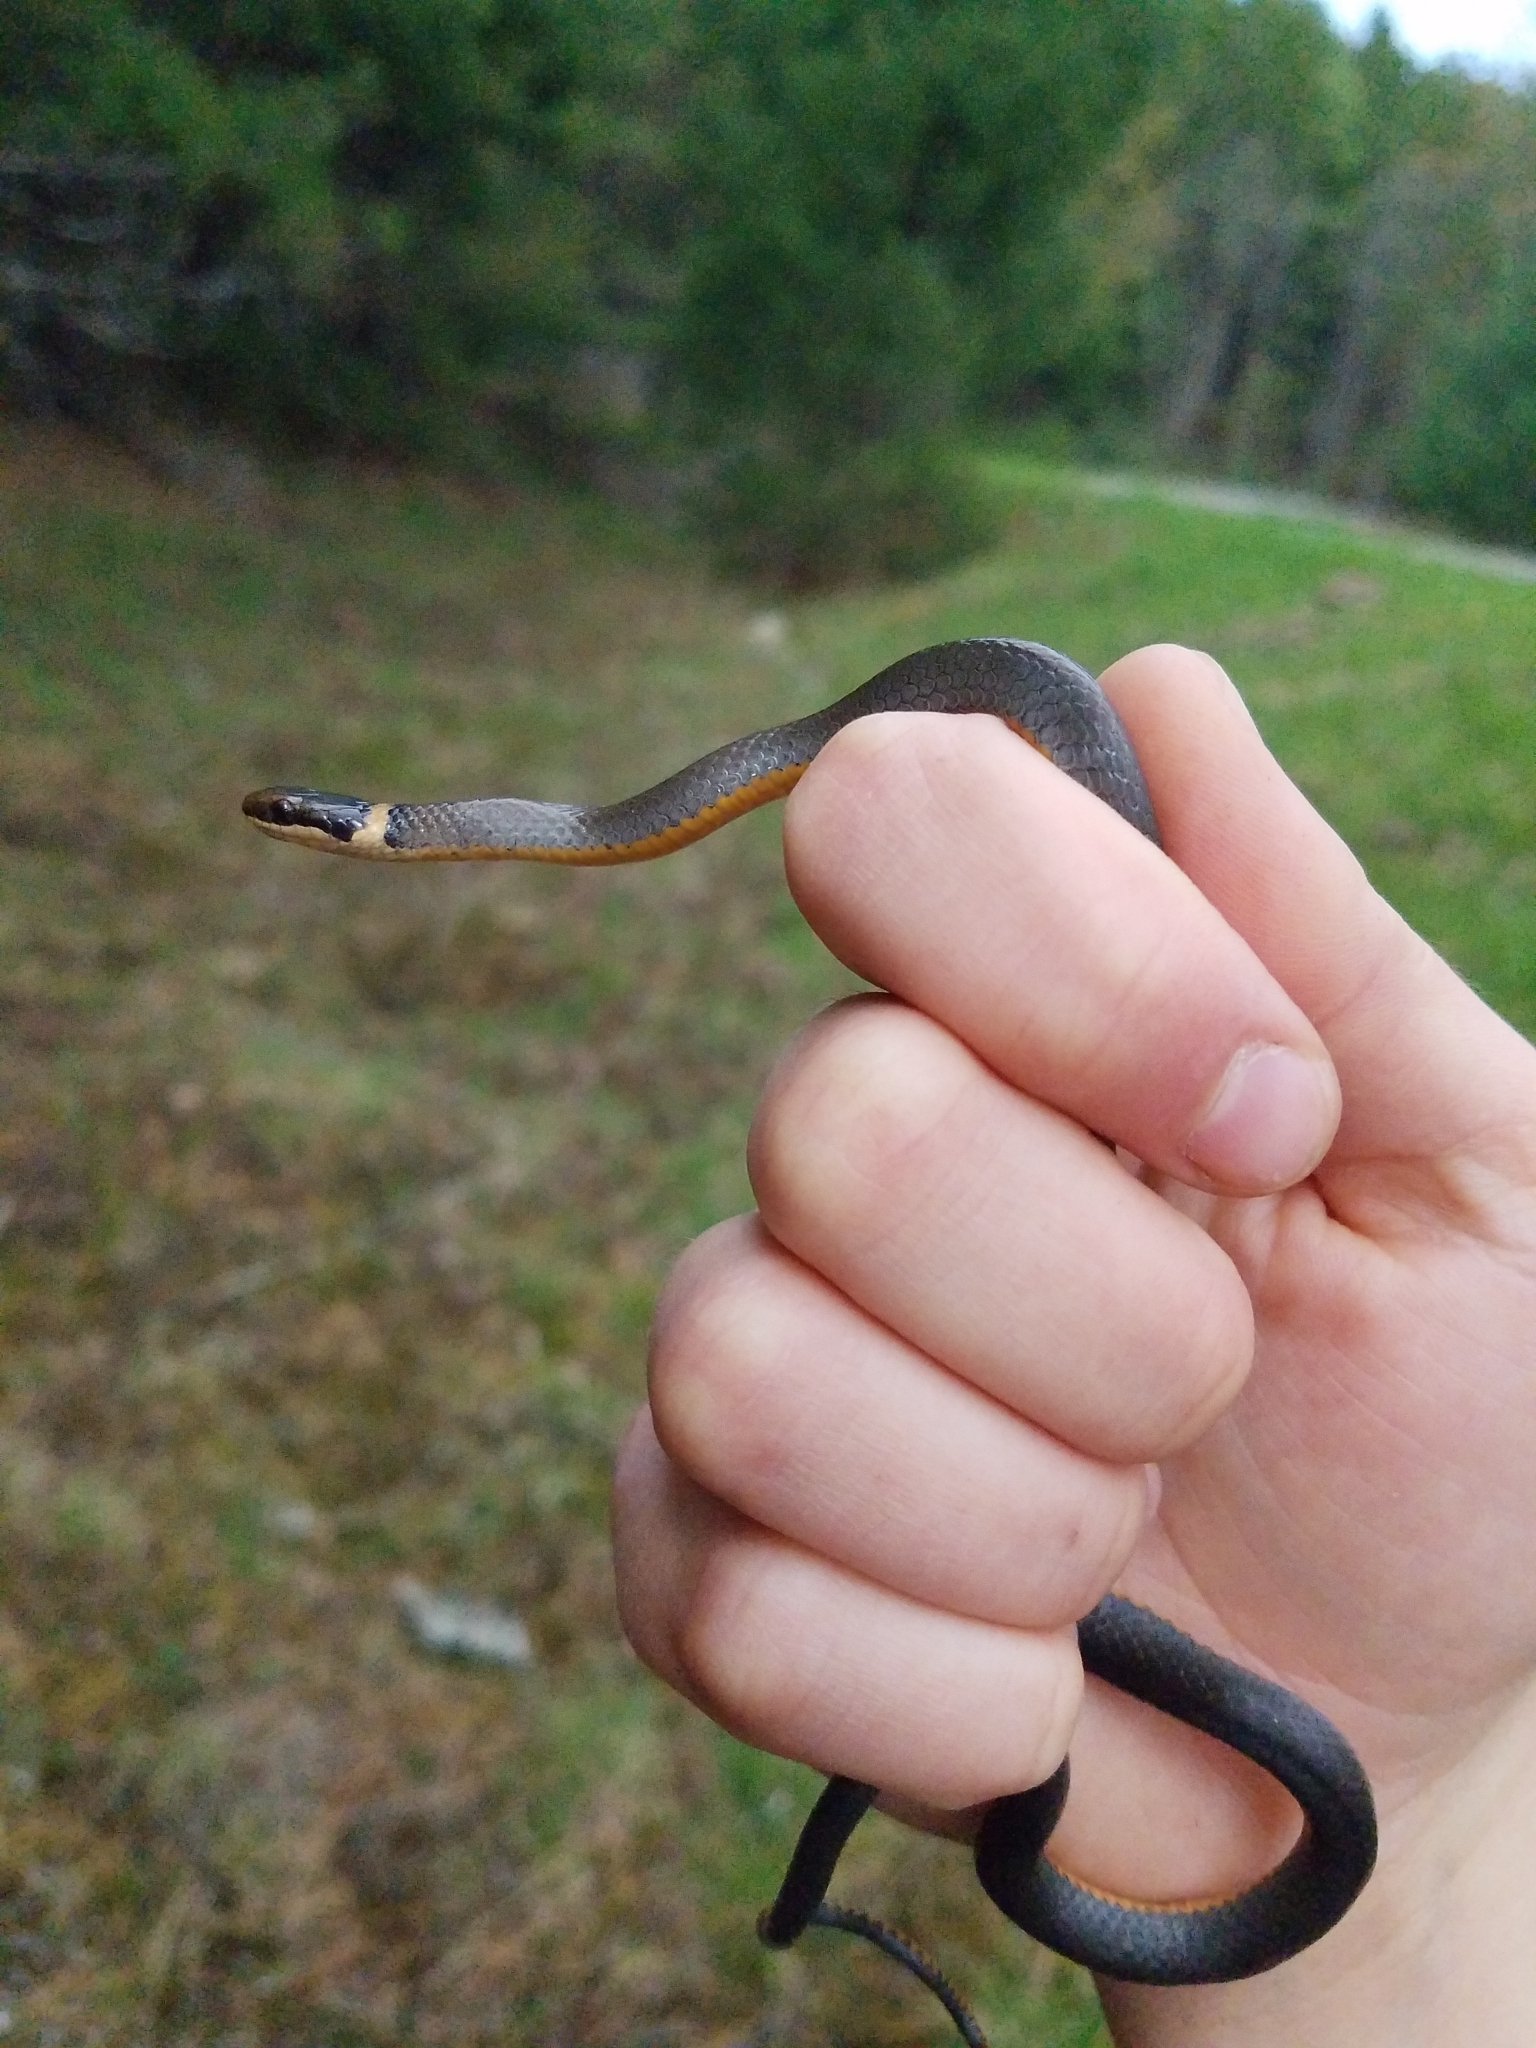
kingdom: Animalia
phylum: Chordata
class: Squamata
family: Colubridae
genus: Diadophis
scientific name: Diadophis punctatus
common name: Ringneck snake
